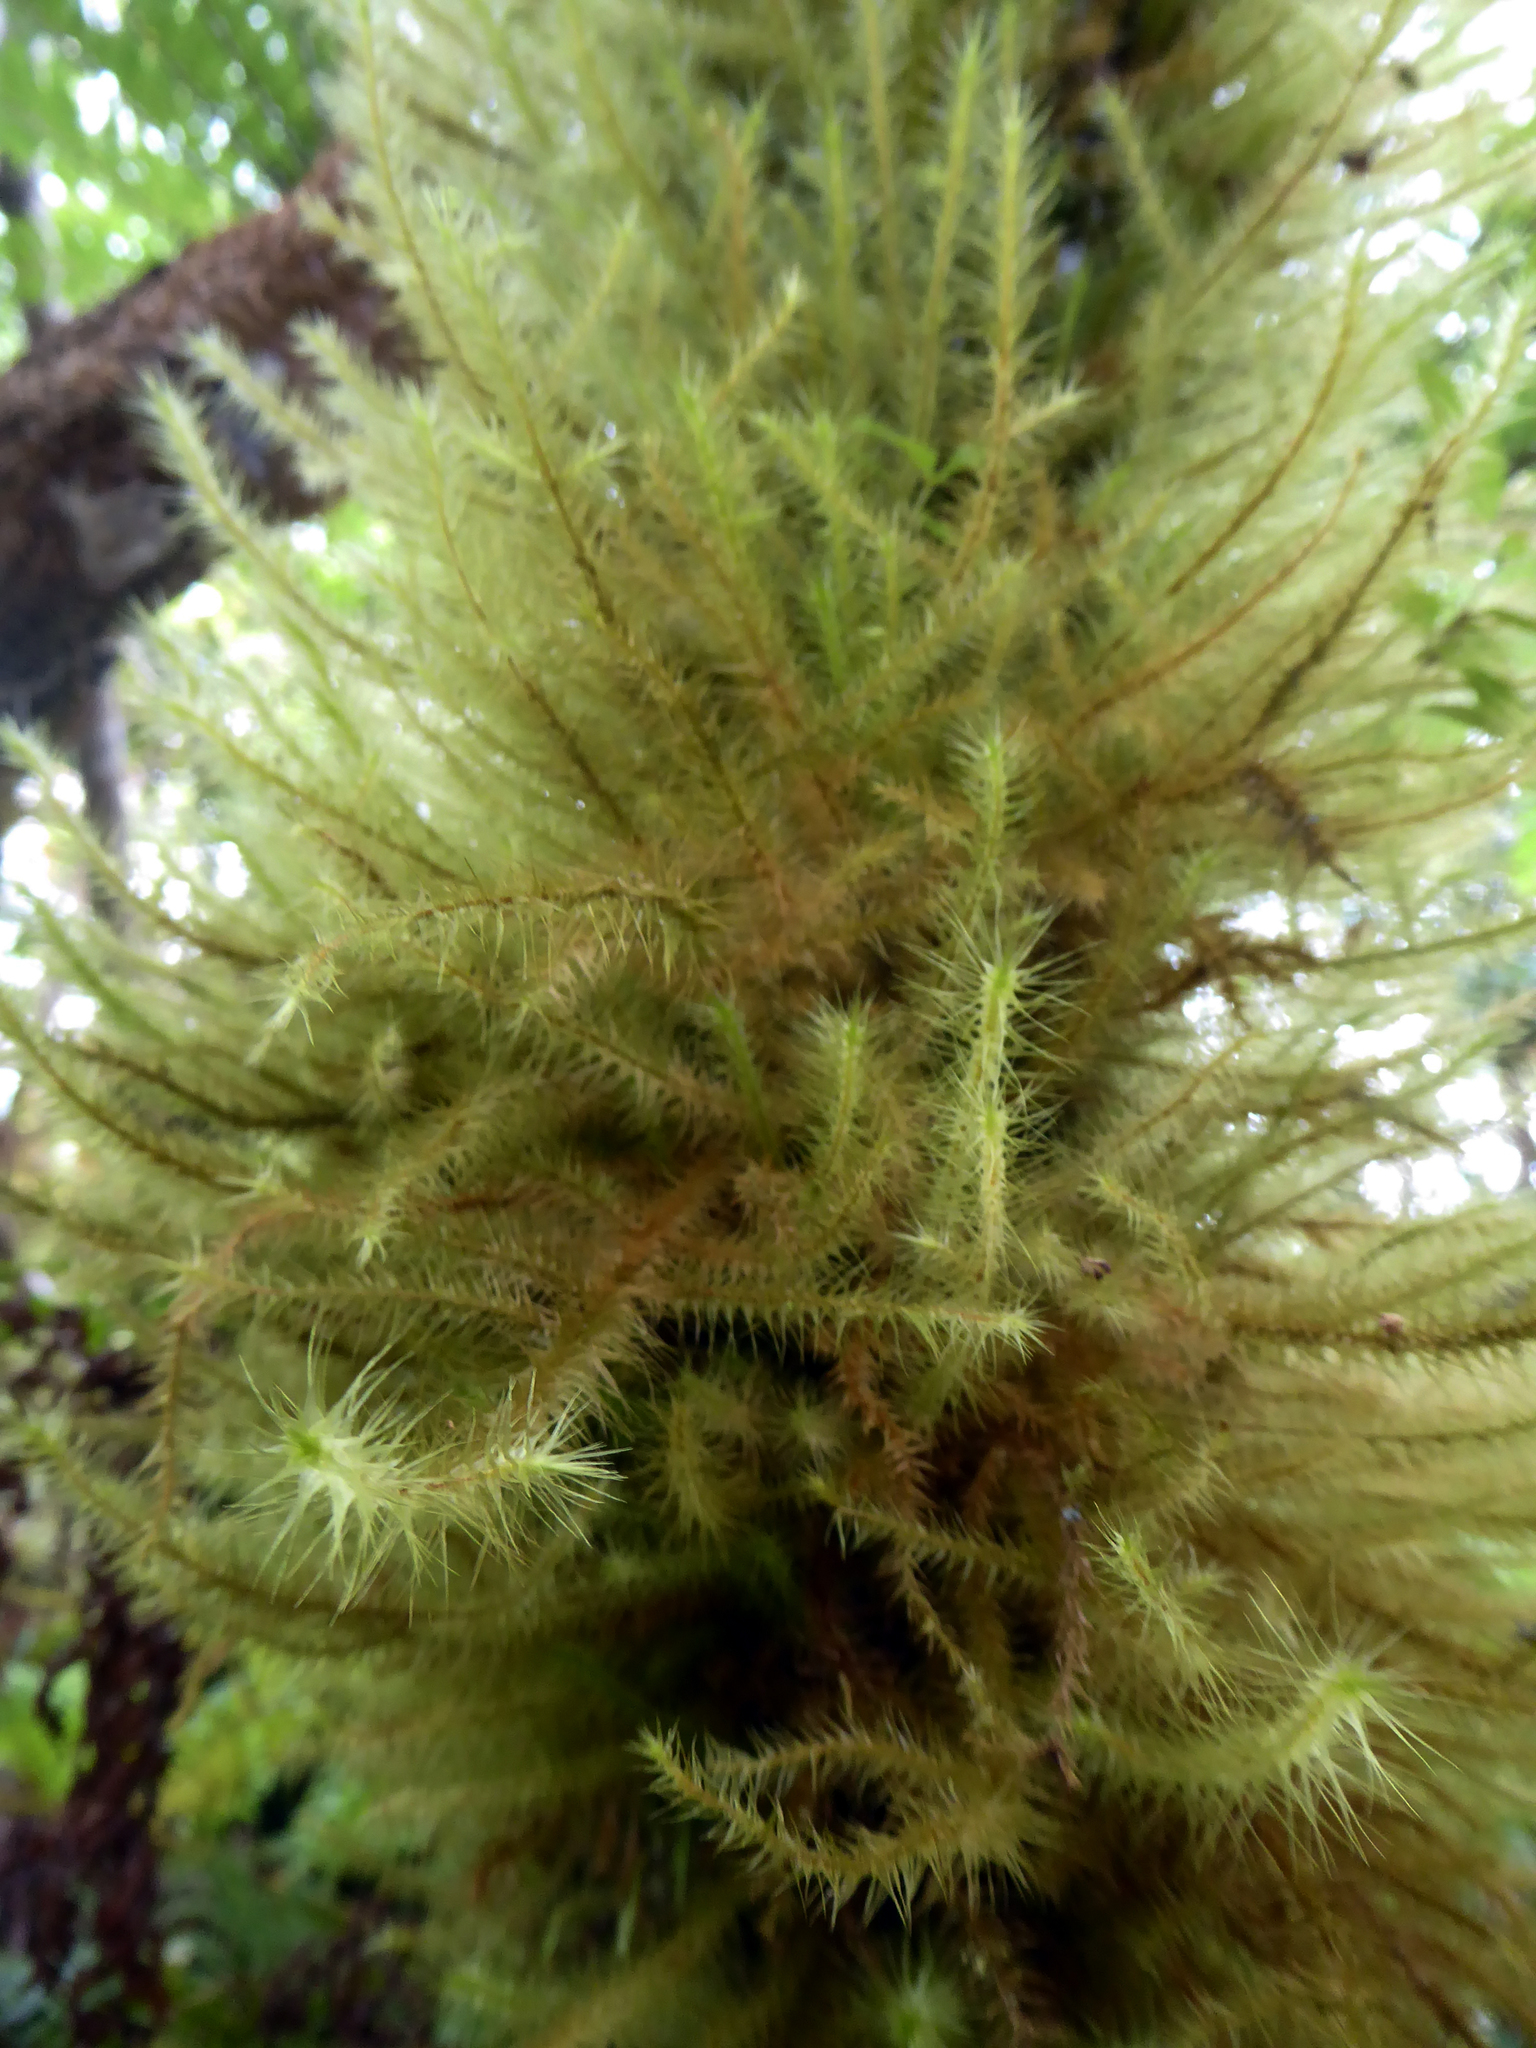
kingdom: Plantae
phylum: Bryophyta
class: Bryopsida
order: Hypnodendrales
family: Spiridentaceae
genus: Spiridens
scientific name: Spiridens reinwardtii
